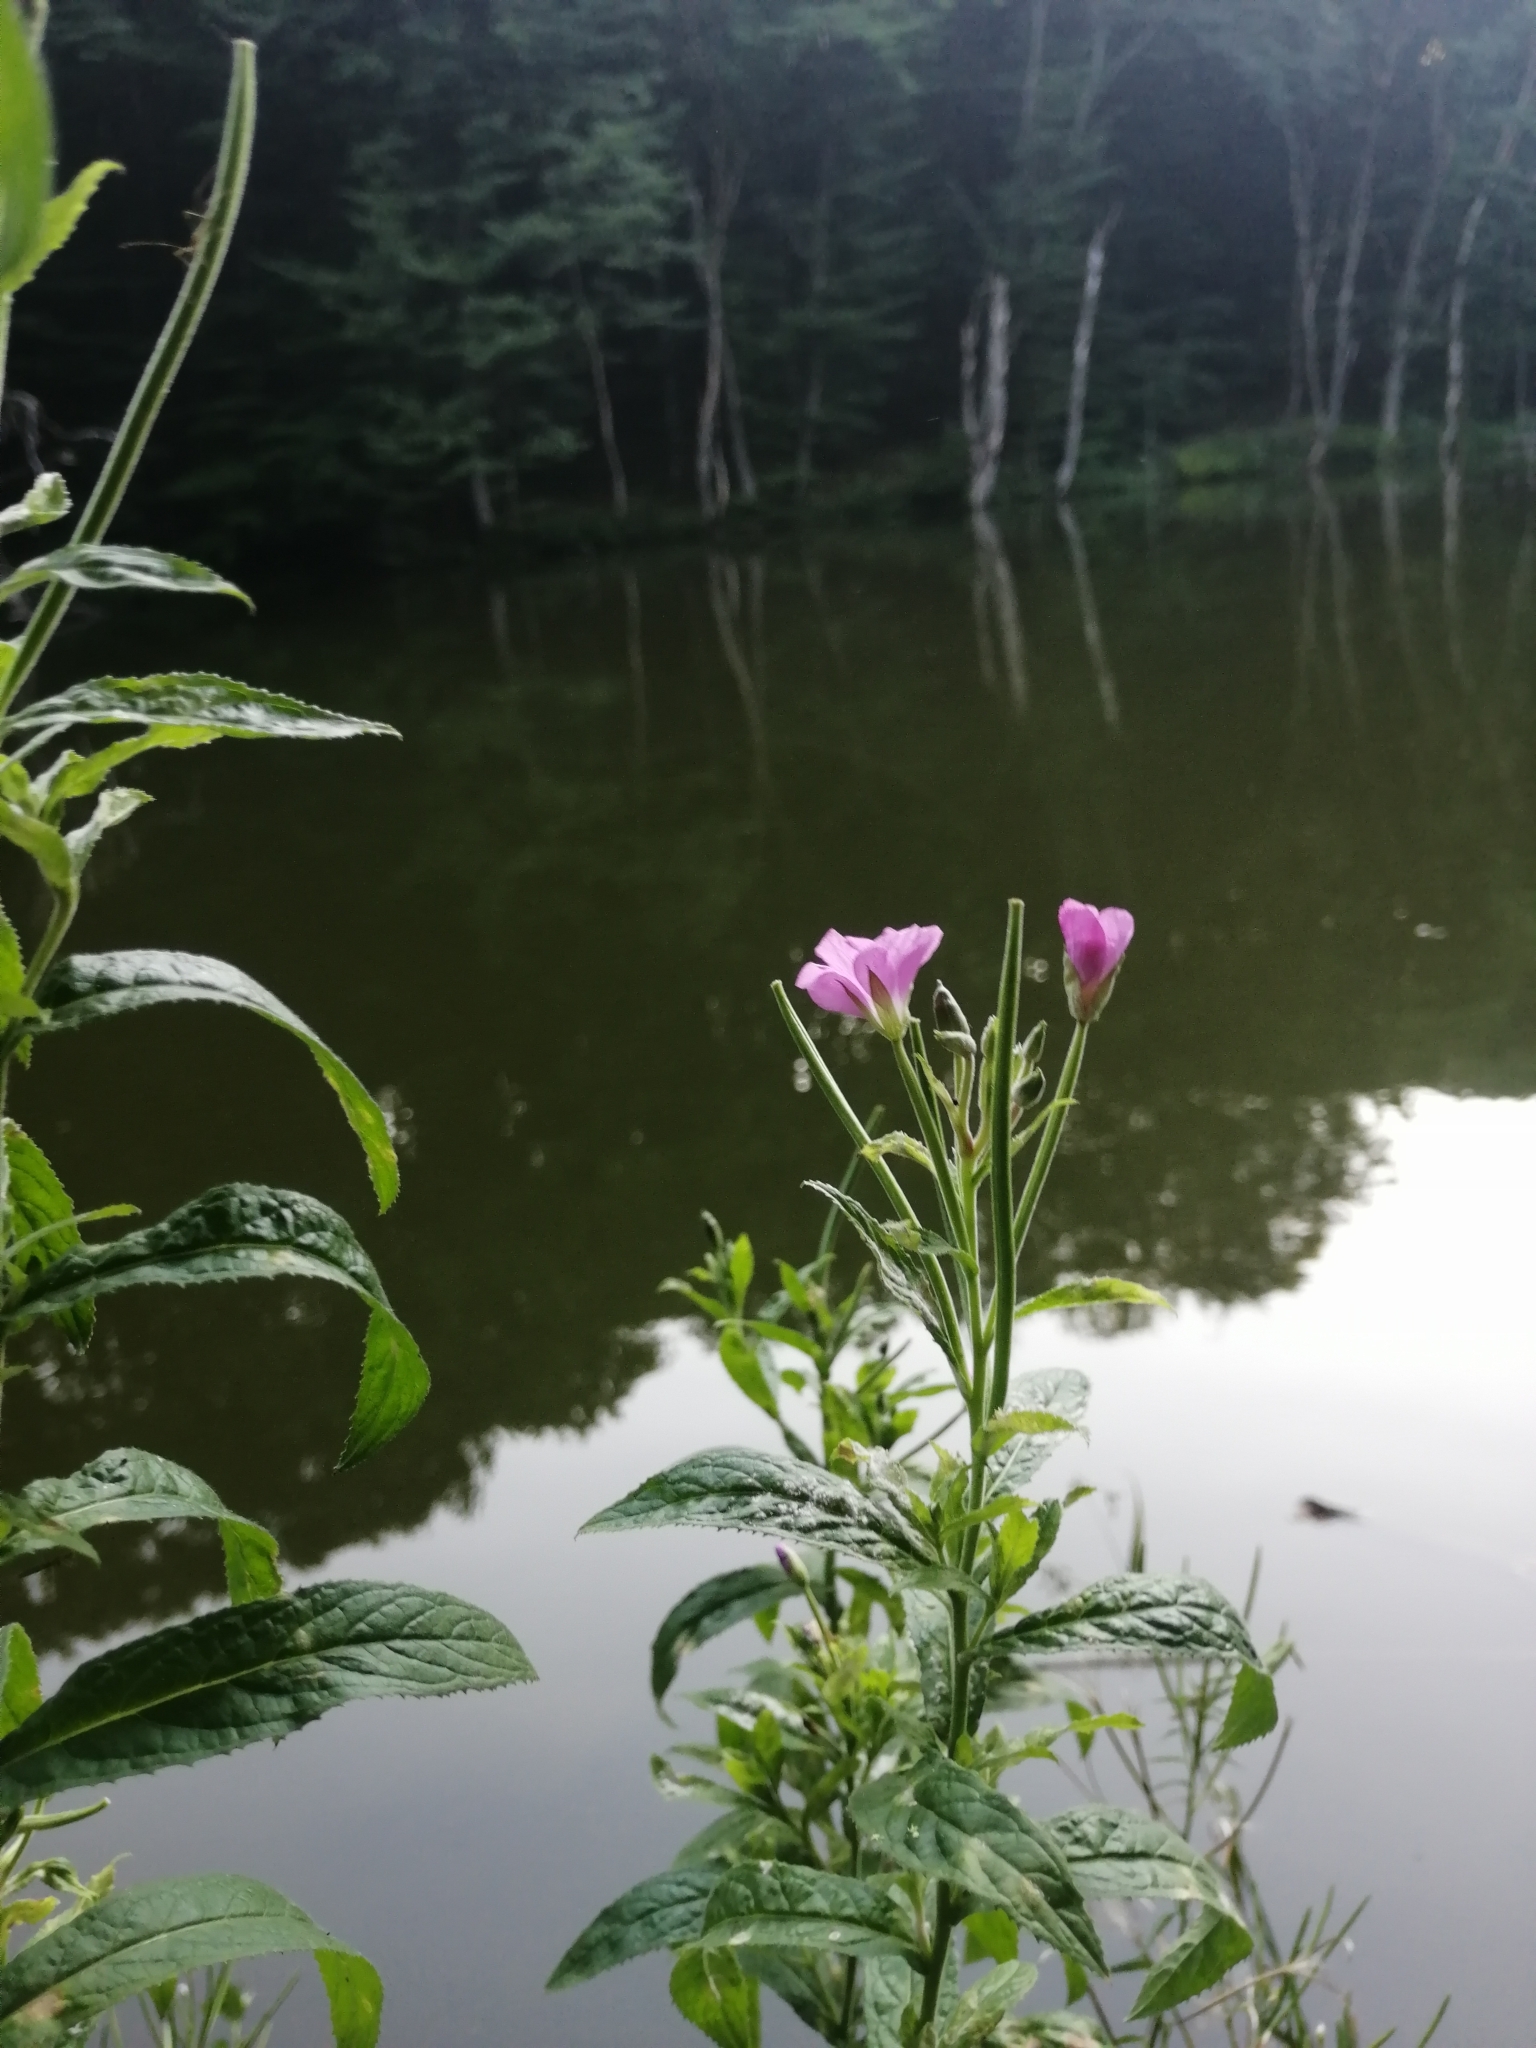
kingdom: Plantae
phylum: Tracheophyta
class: Magnoliopsida
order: Myrtales
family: Onagraceae
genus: Epilobium
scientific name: Epilobium hirsutum
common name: Great willowherb
